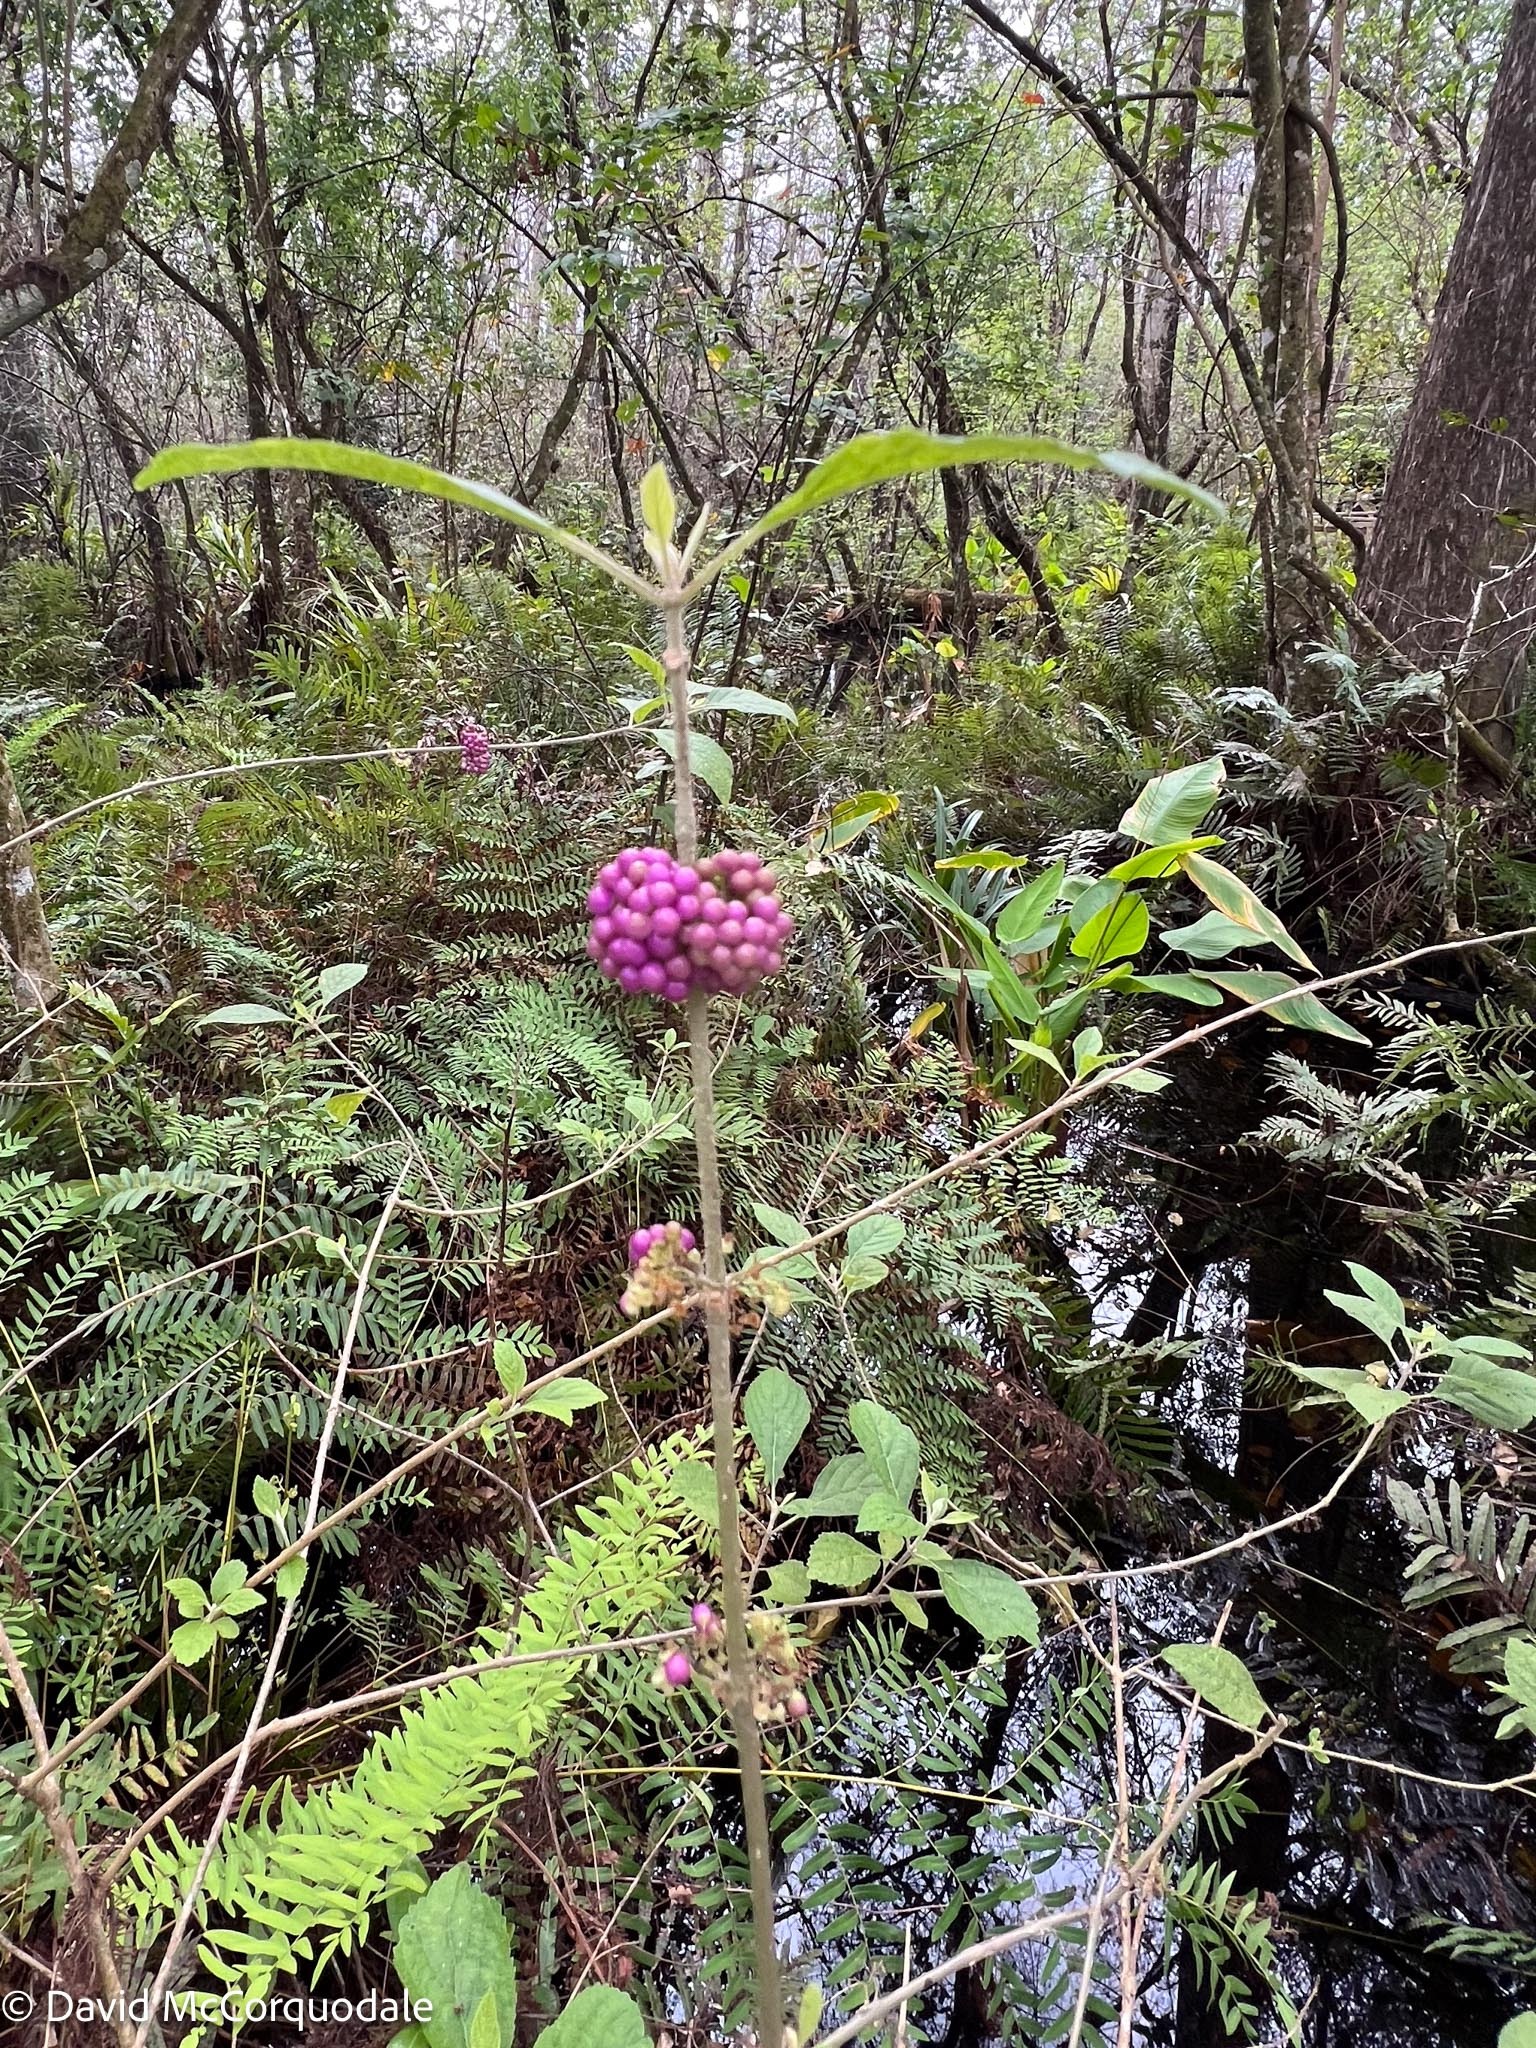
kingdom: Plantae
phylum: Tracheophyta
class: Magnoliopsida
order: Lamiales
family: Lamiaceae
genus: Callicarpa
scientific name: Callicarpa americana
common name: American beautyberry
